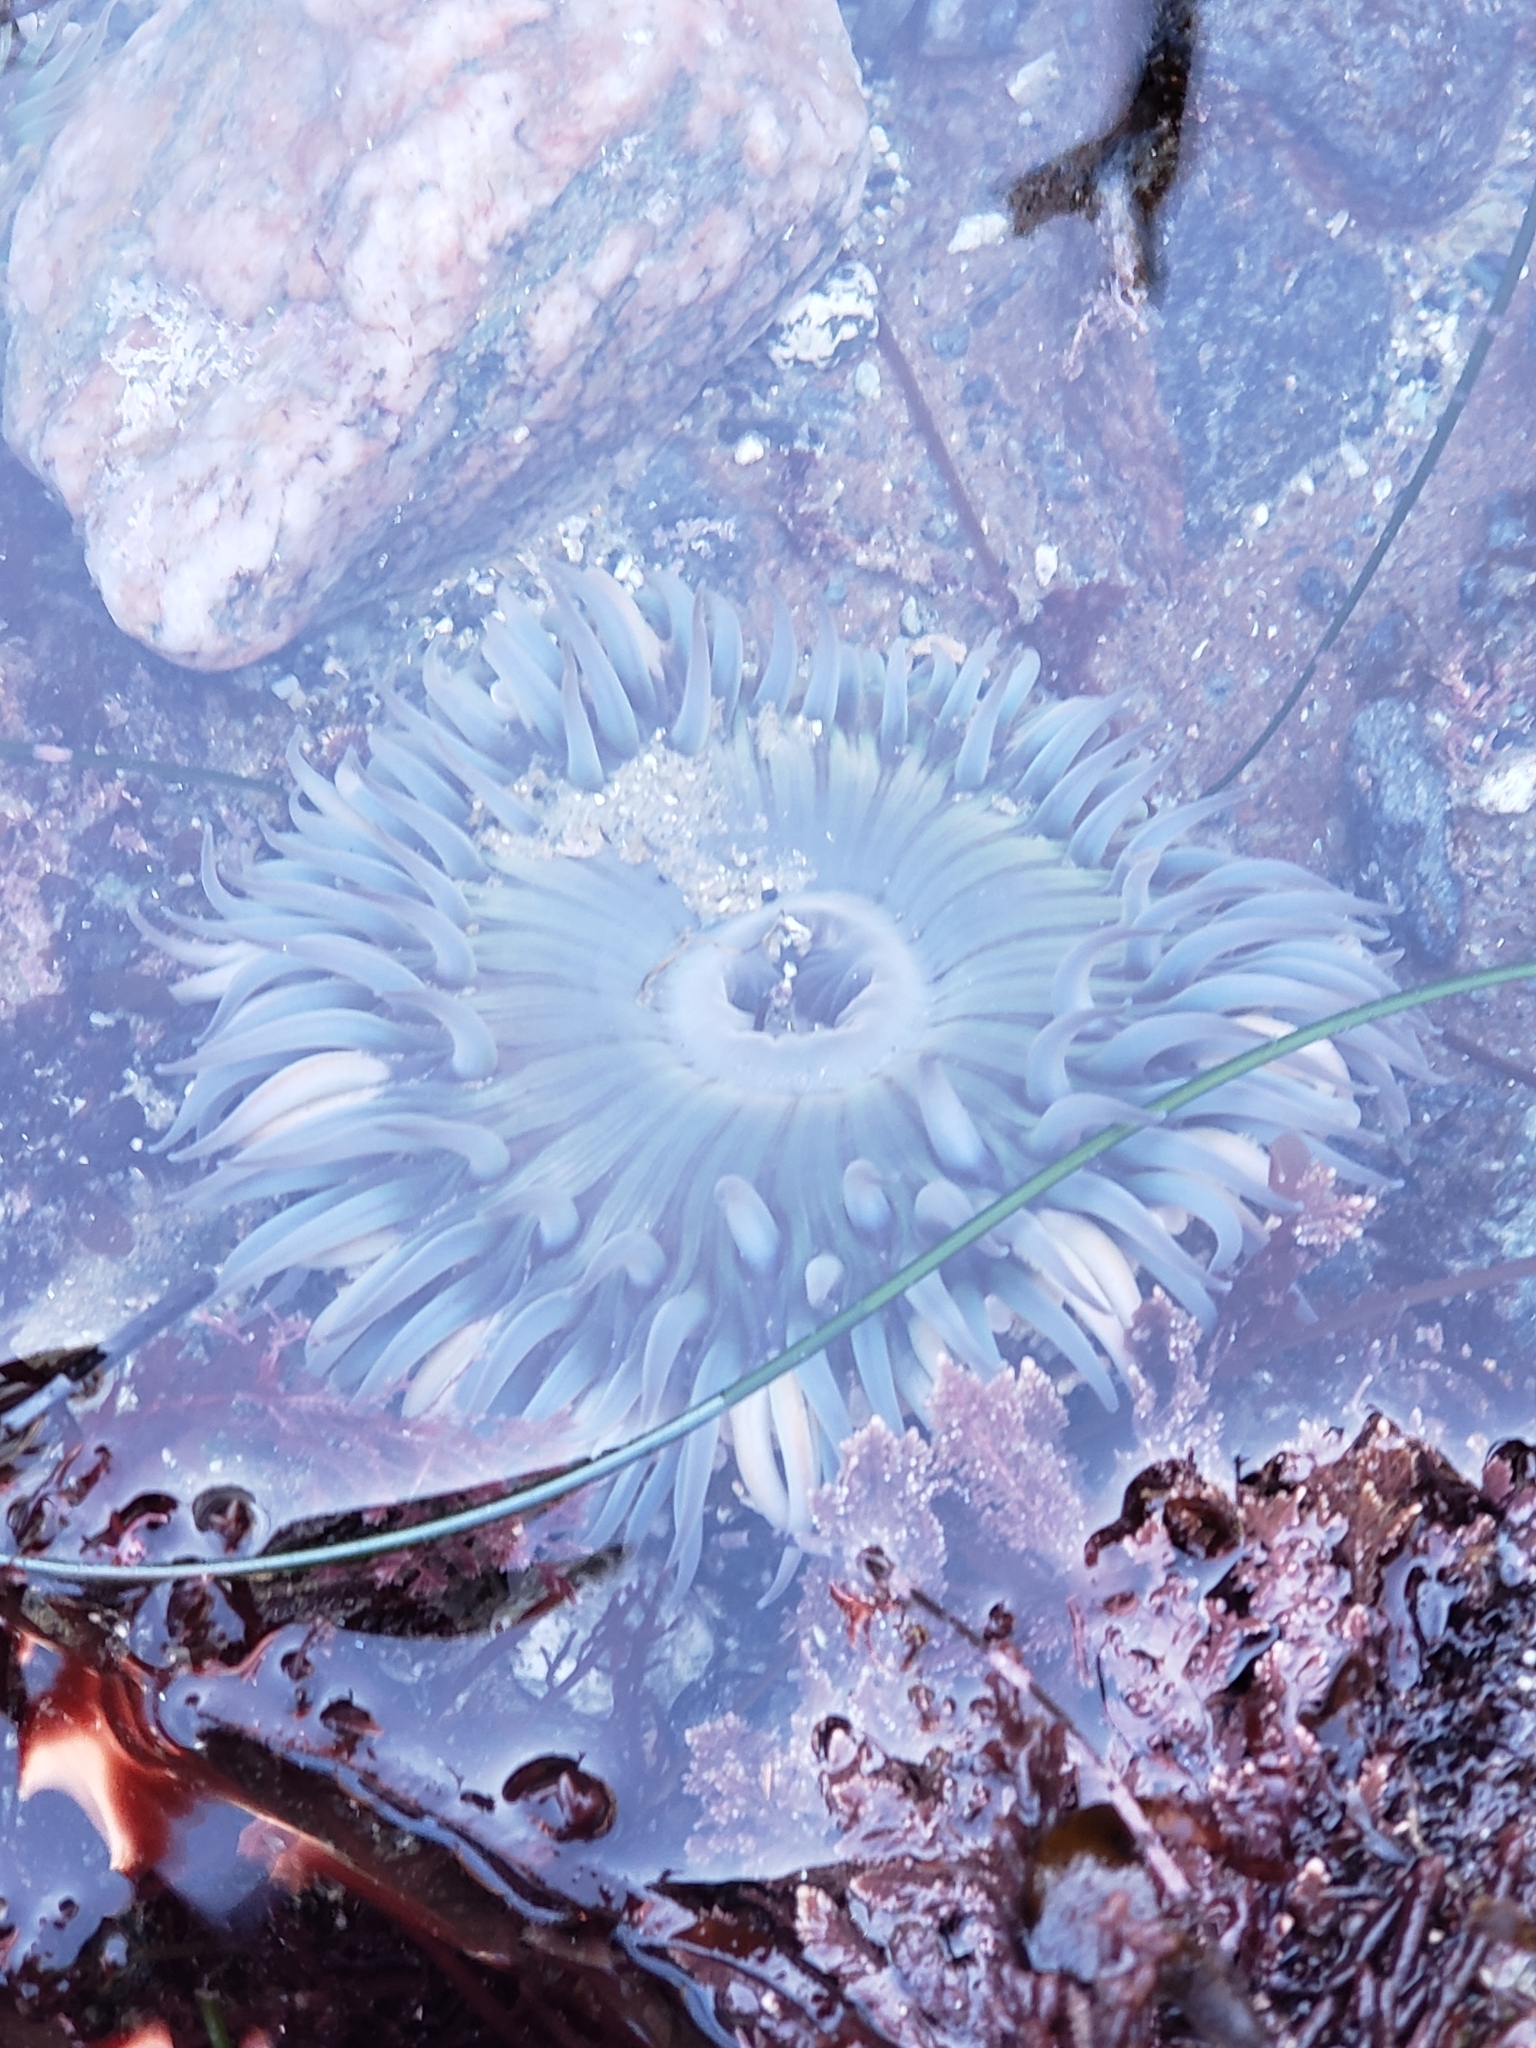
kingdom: Animalia
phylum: Cnidaria
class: Anthozoa
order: Actiniaria
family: Actiniidae
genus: Anthopleura
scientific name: Anthopleura sola
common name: Sun anemone
